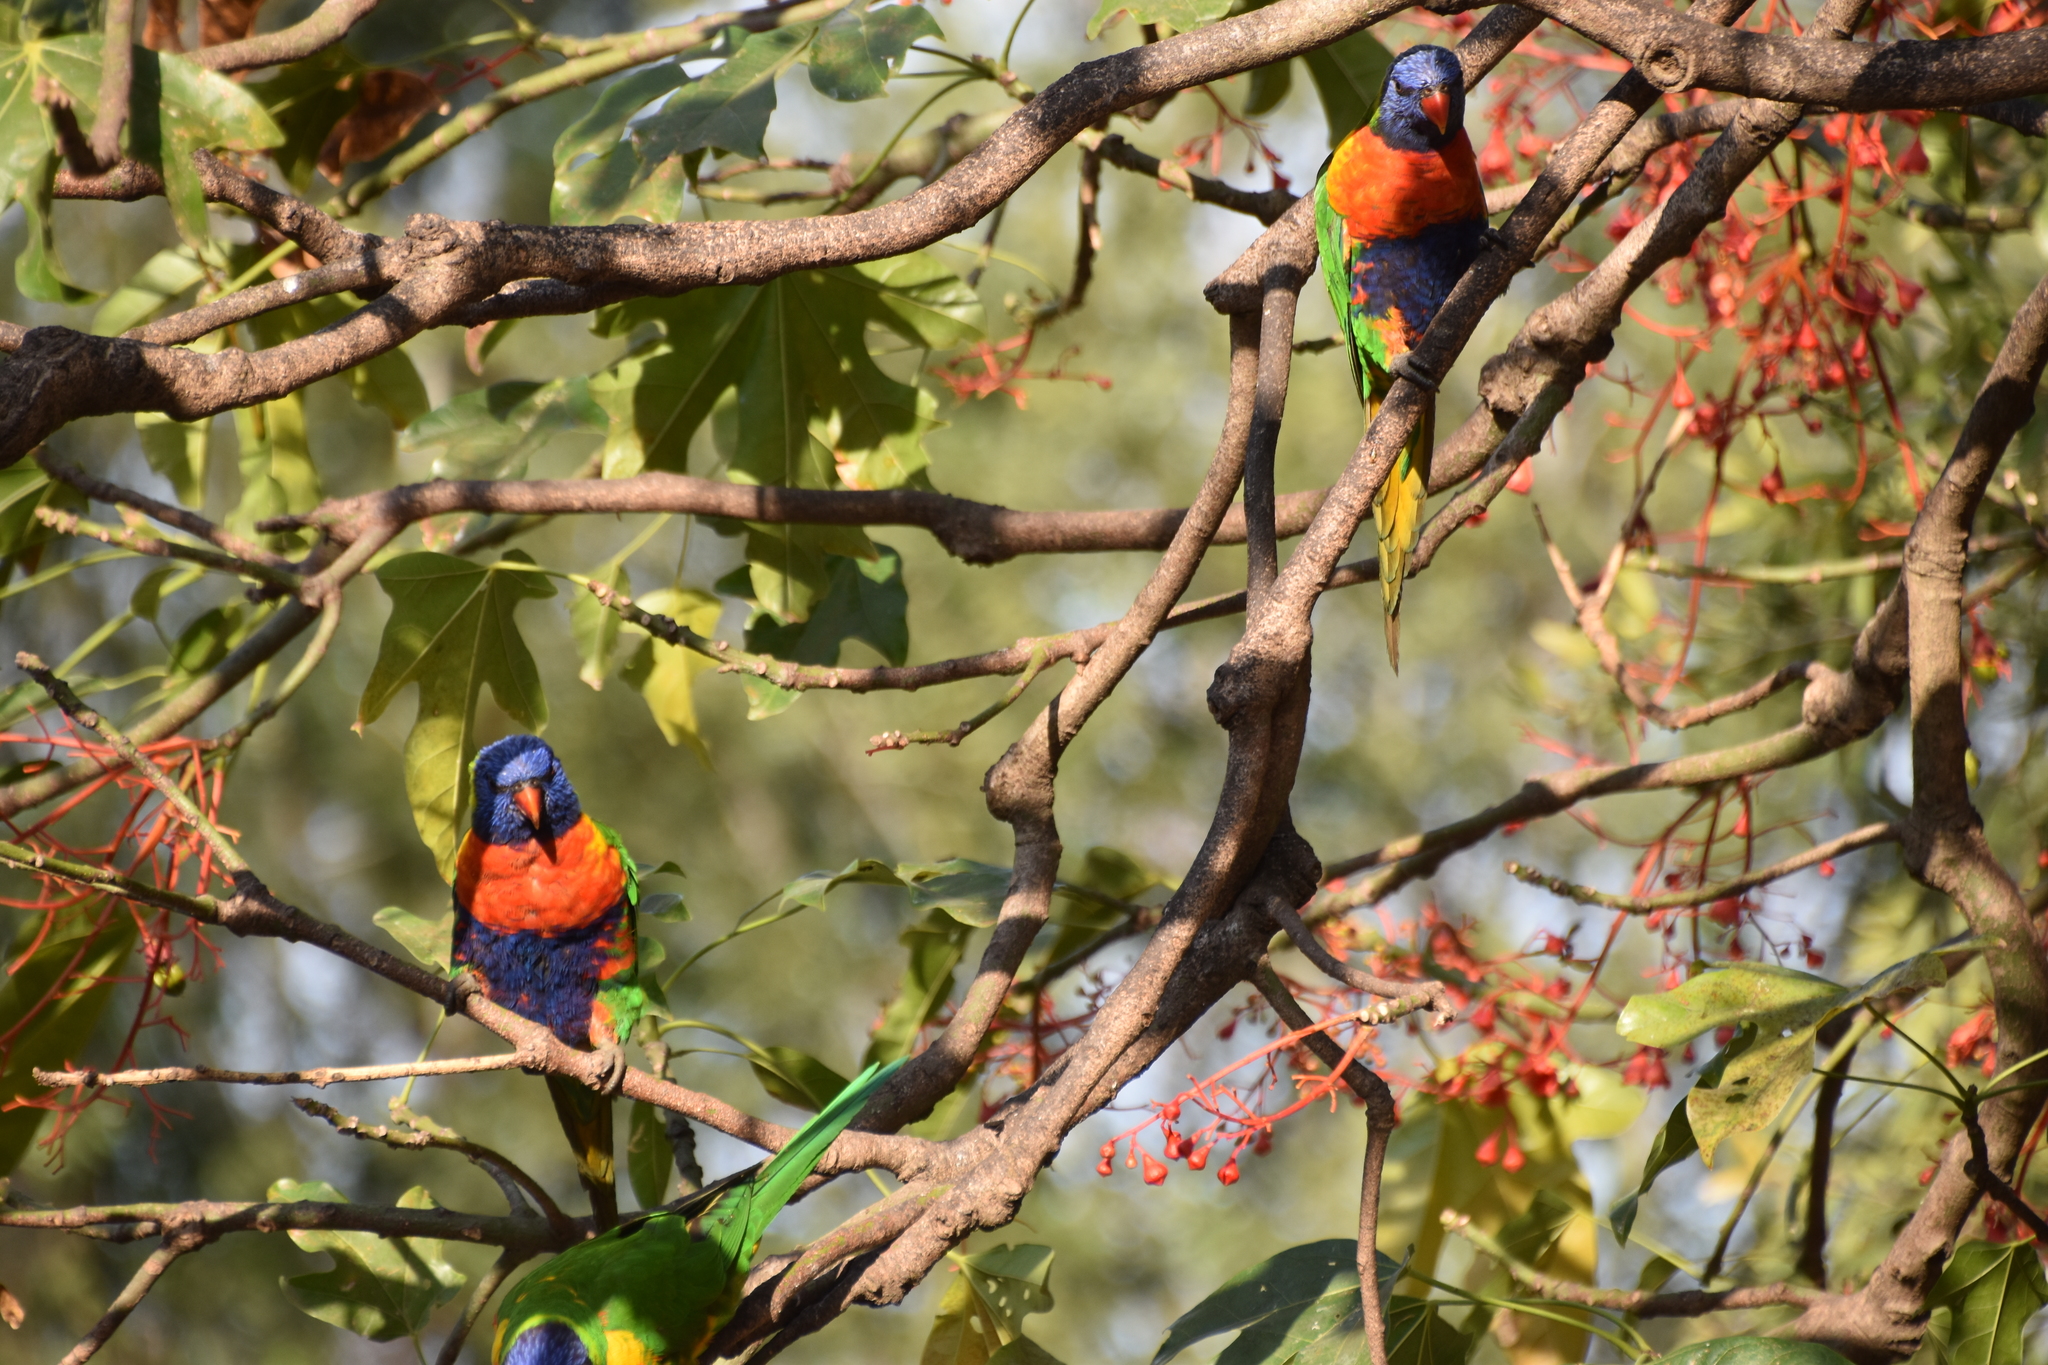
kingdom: Animalia
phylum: Chordata
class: Aves
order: Psittaciformes
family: Psittacidae
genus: Trichoglossus
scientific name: Trichoglossus haematodus
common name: Coconut lorikeet
